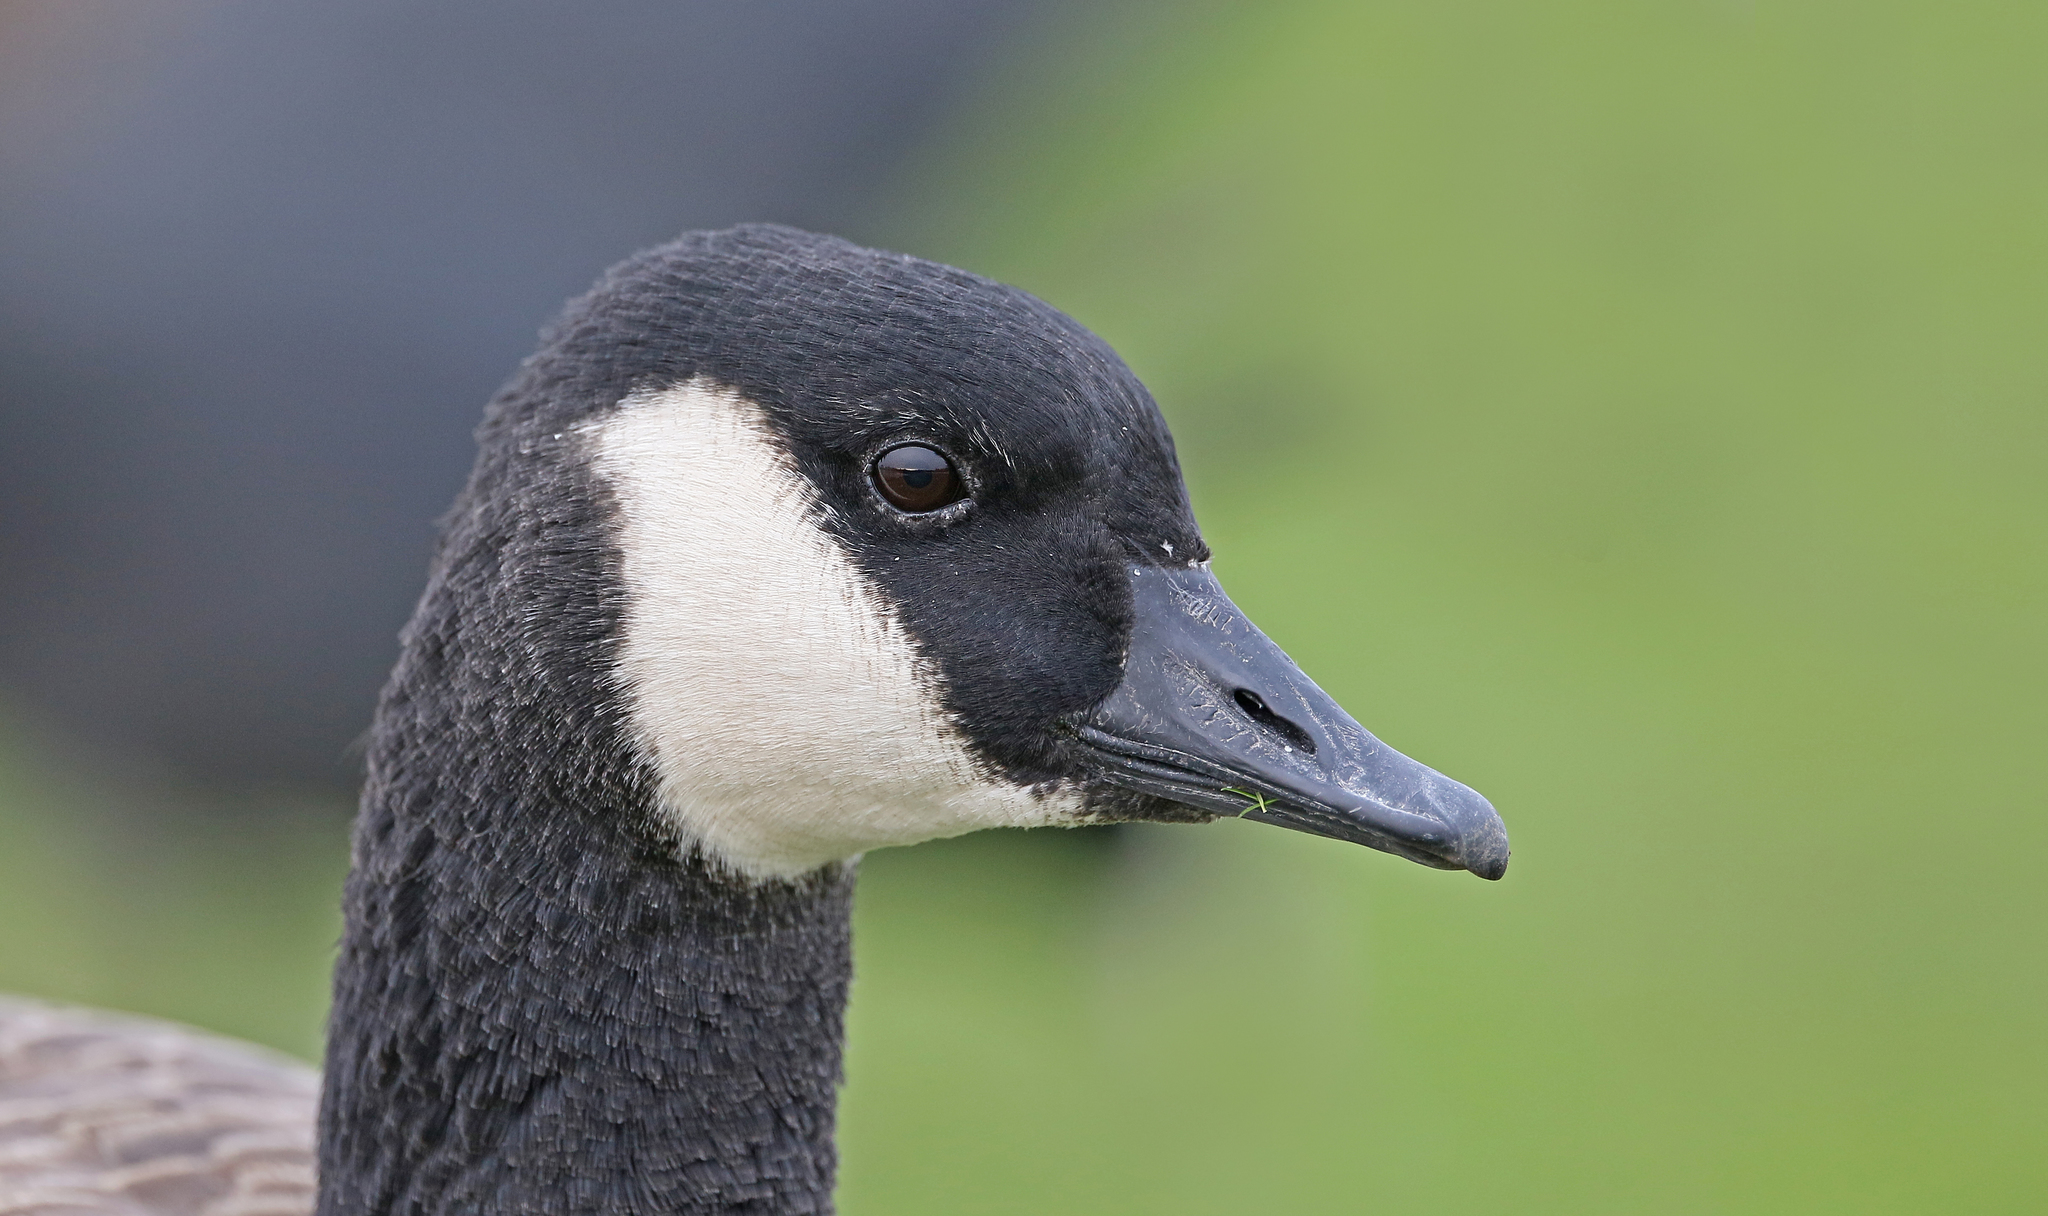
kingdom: Animalia
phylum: Chordata
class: Aves
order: Anseriformes
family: Anatidae
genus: Branta
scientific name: Branta canadensis
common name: Canada goose
